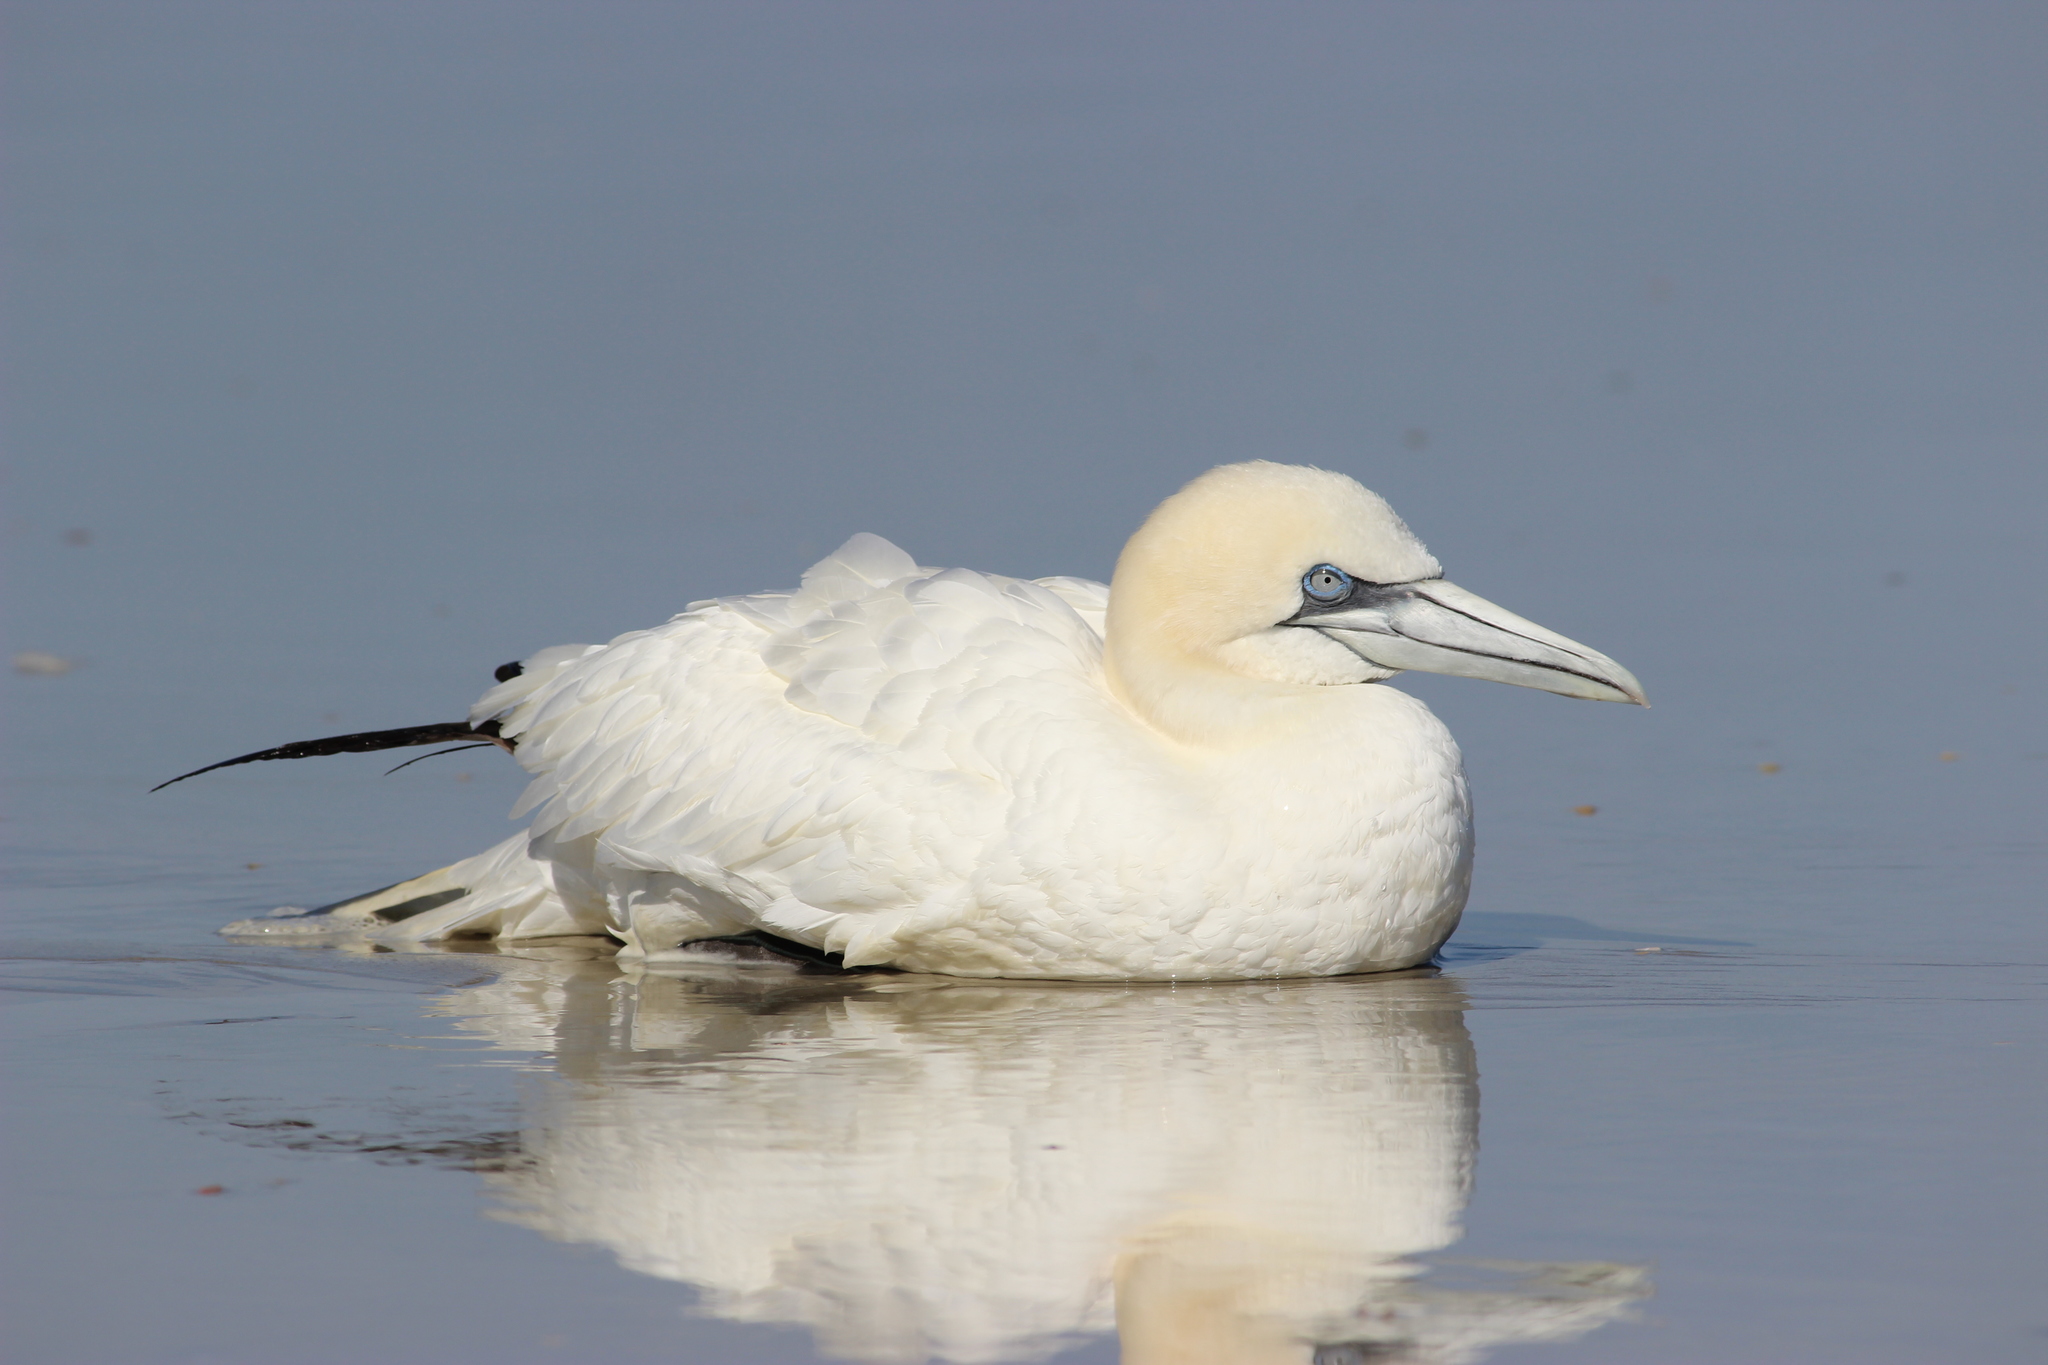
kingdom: Animalia
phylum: Chordata
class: Aves
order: Suliformes
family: Sulidae
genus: Morus
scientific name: Morus bassanus
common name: Northern gannet
